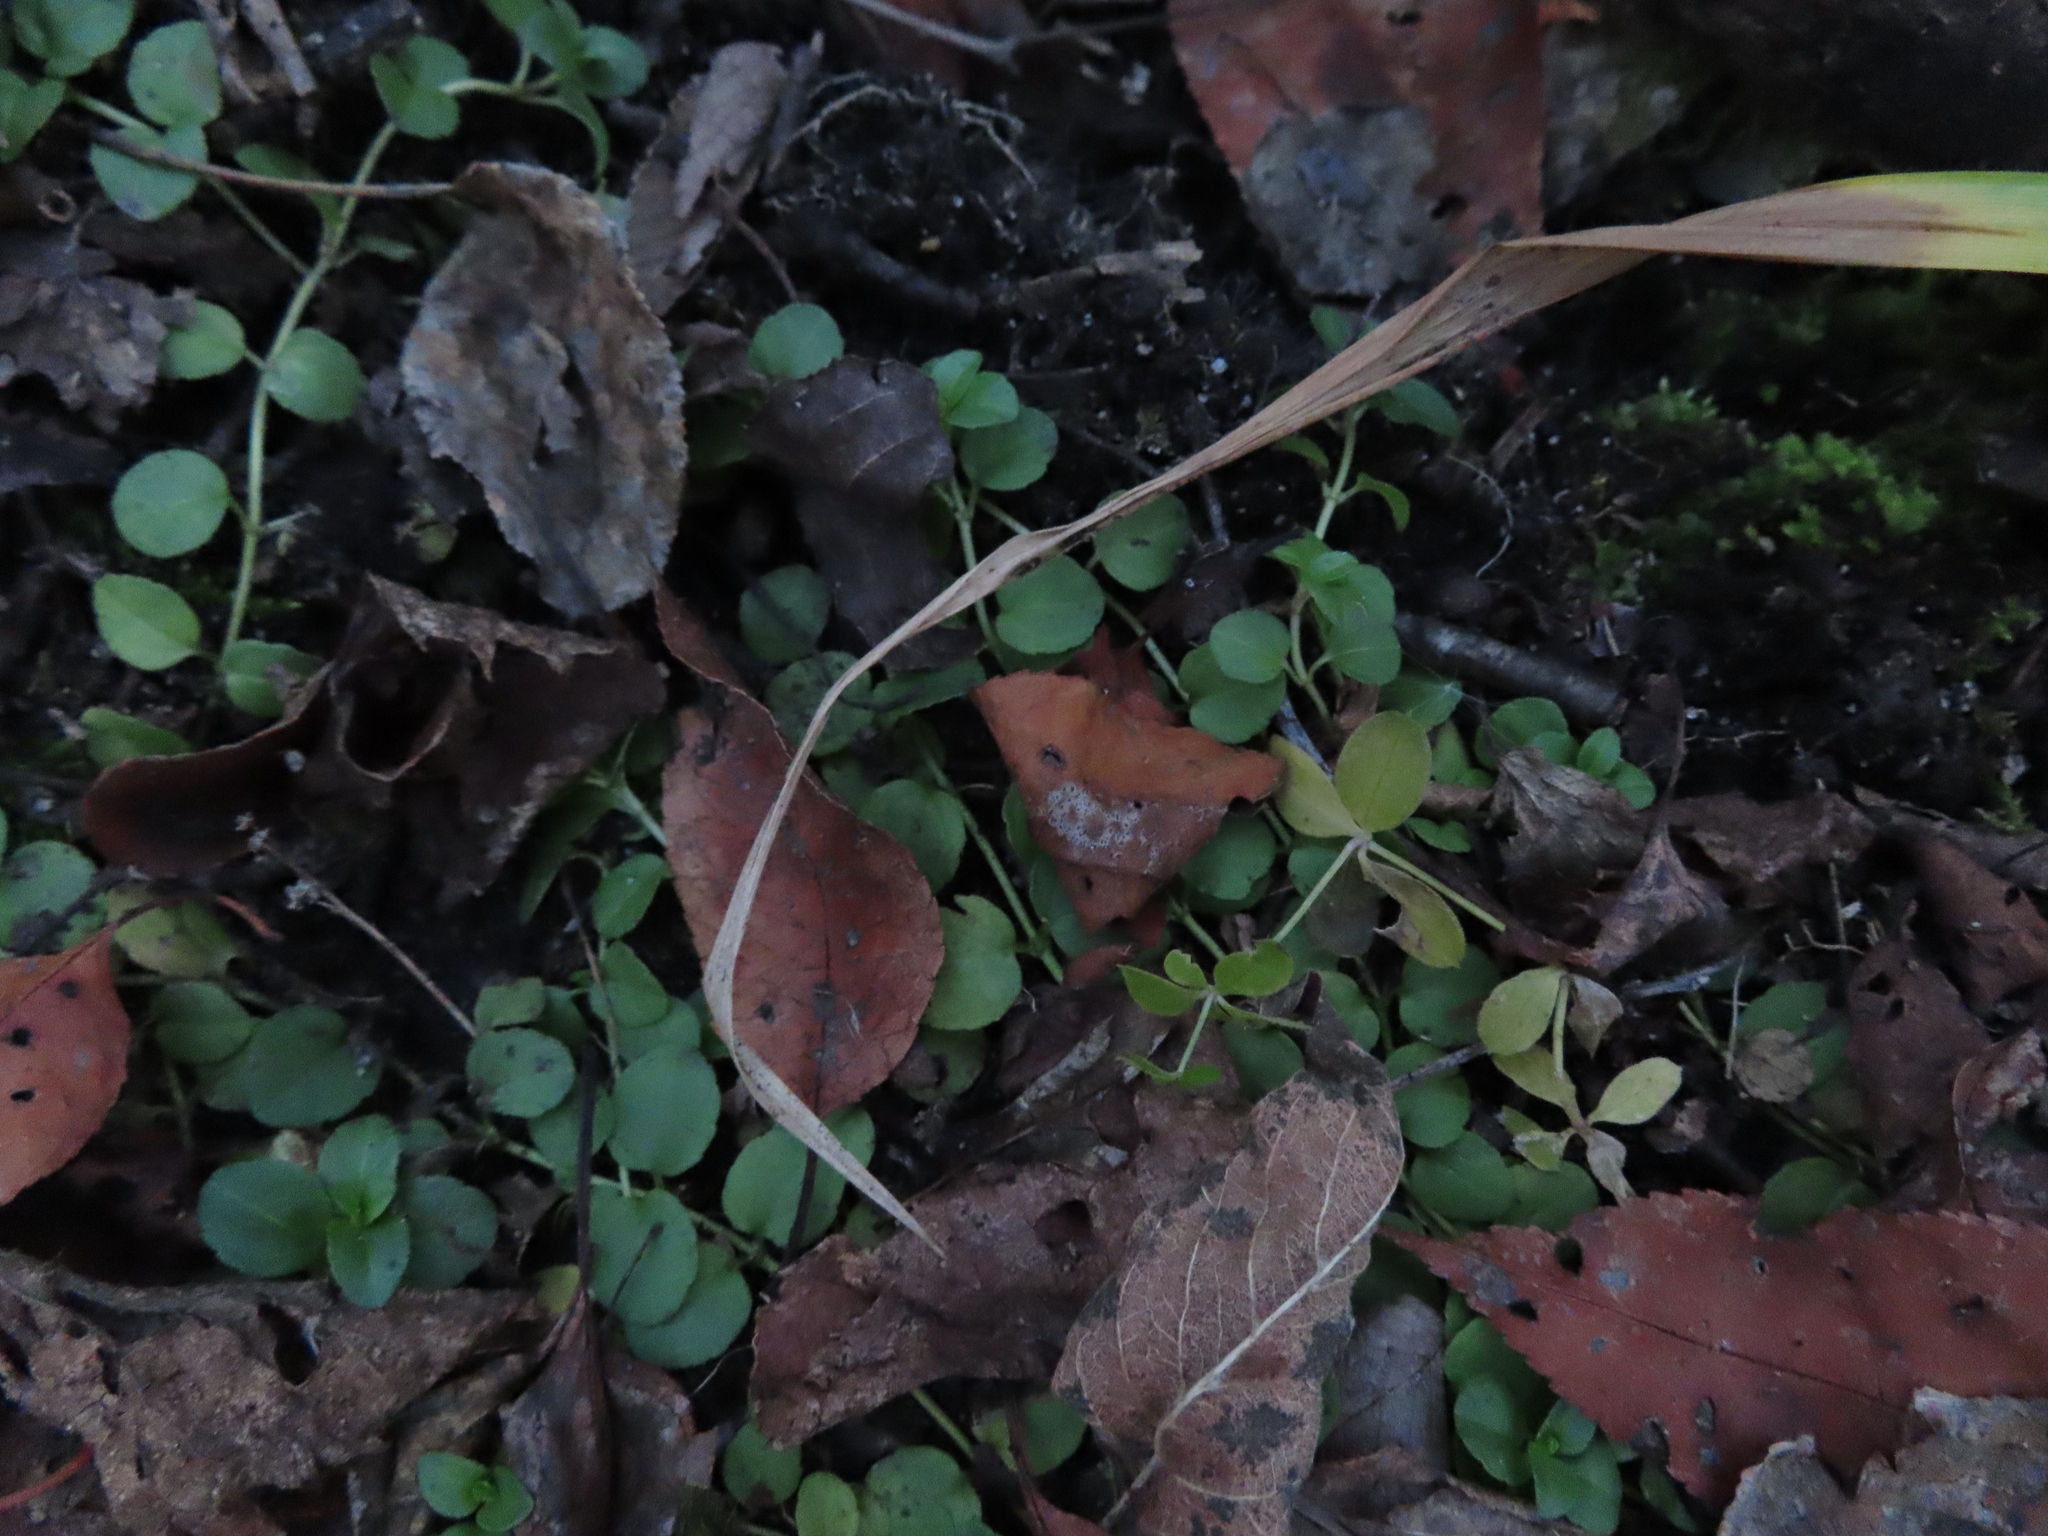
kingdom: Plantae
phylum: Tracheophyta
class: Magnoliopsida
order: Lamiales
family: Plantaginaceae
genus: Veronica
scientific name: Veronica serpyllifolia
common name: Thyme-leaved speedwell
